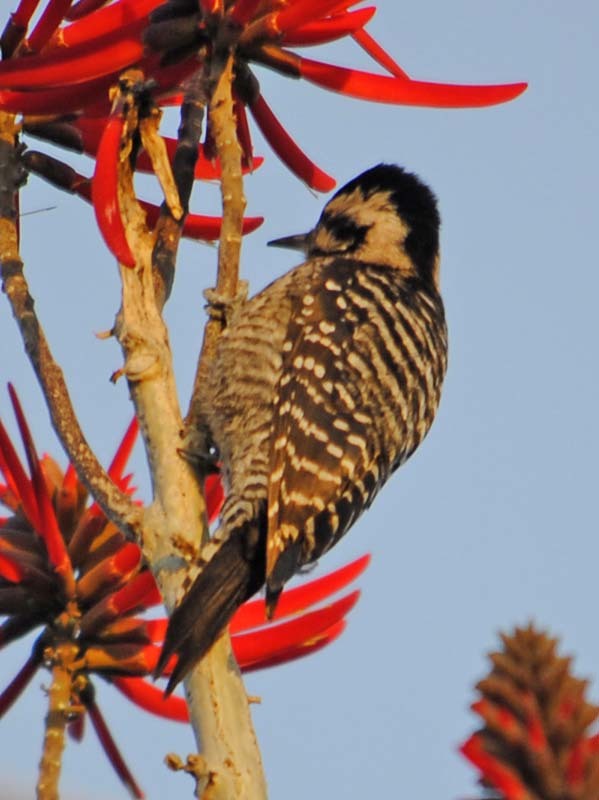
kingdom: Animalia
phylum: Chordata
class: Aves
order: Piciformes
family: Picidae
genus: Dryobates
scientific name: Dryobates scalaris
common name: Ladder-backed woodpecker
